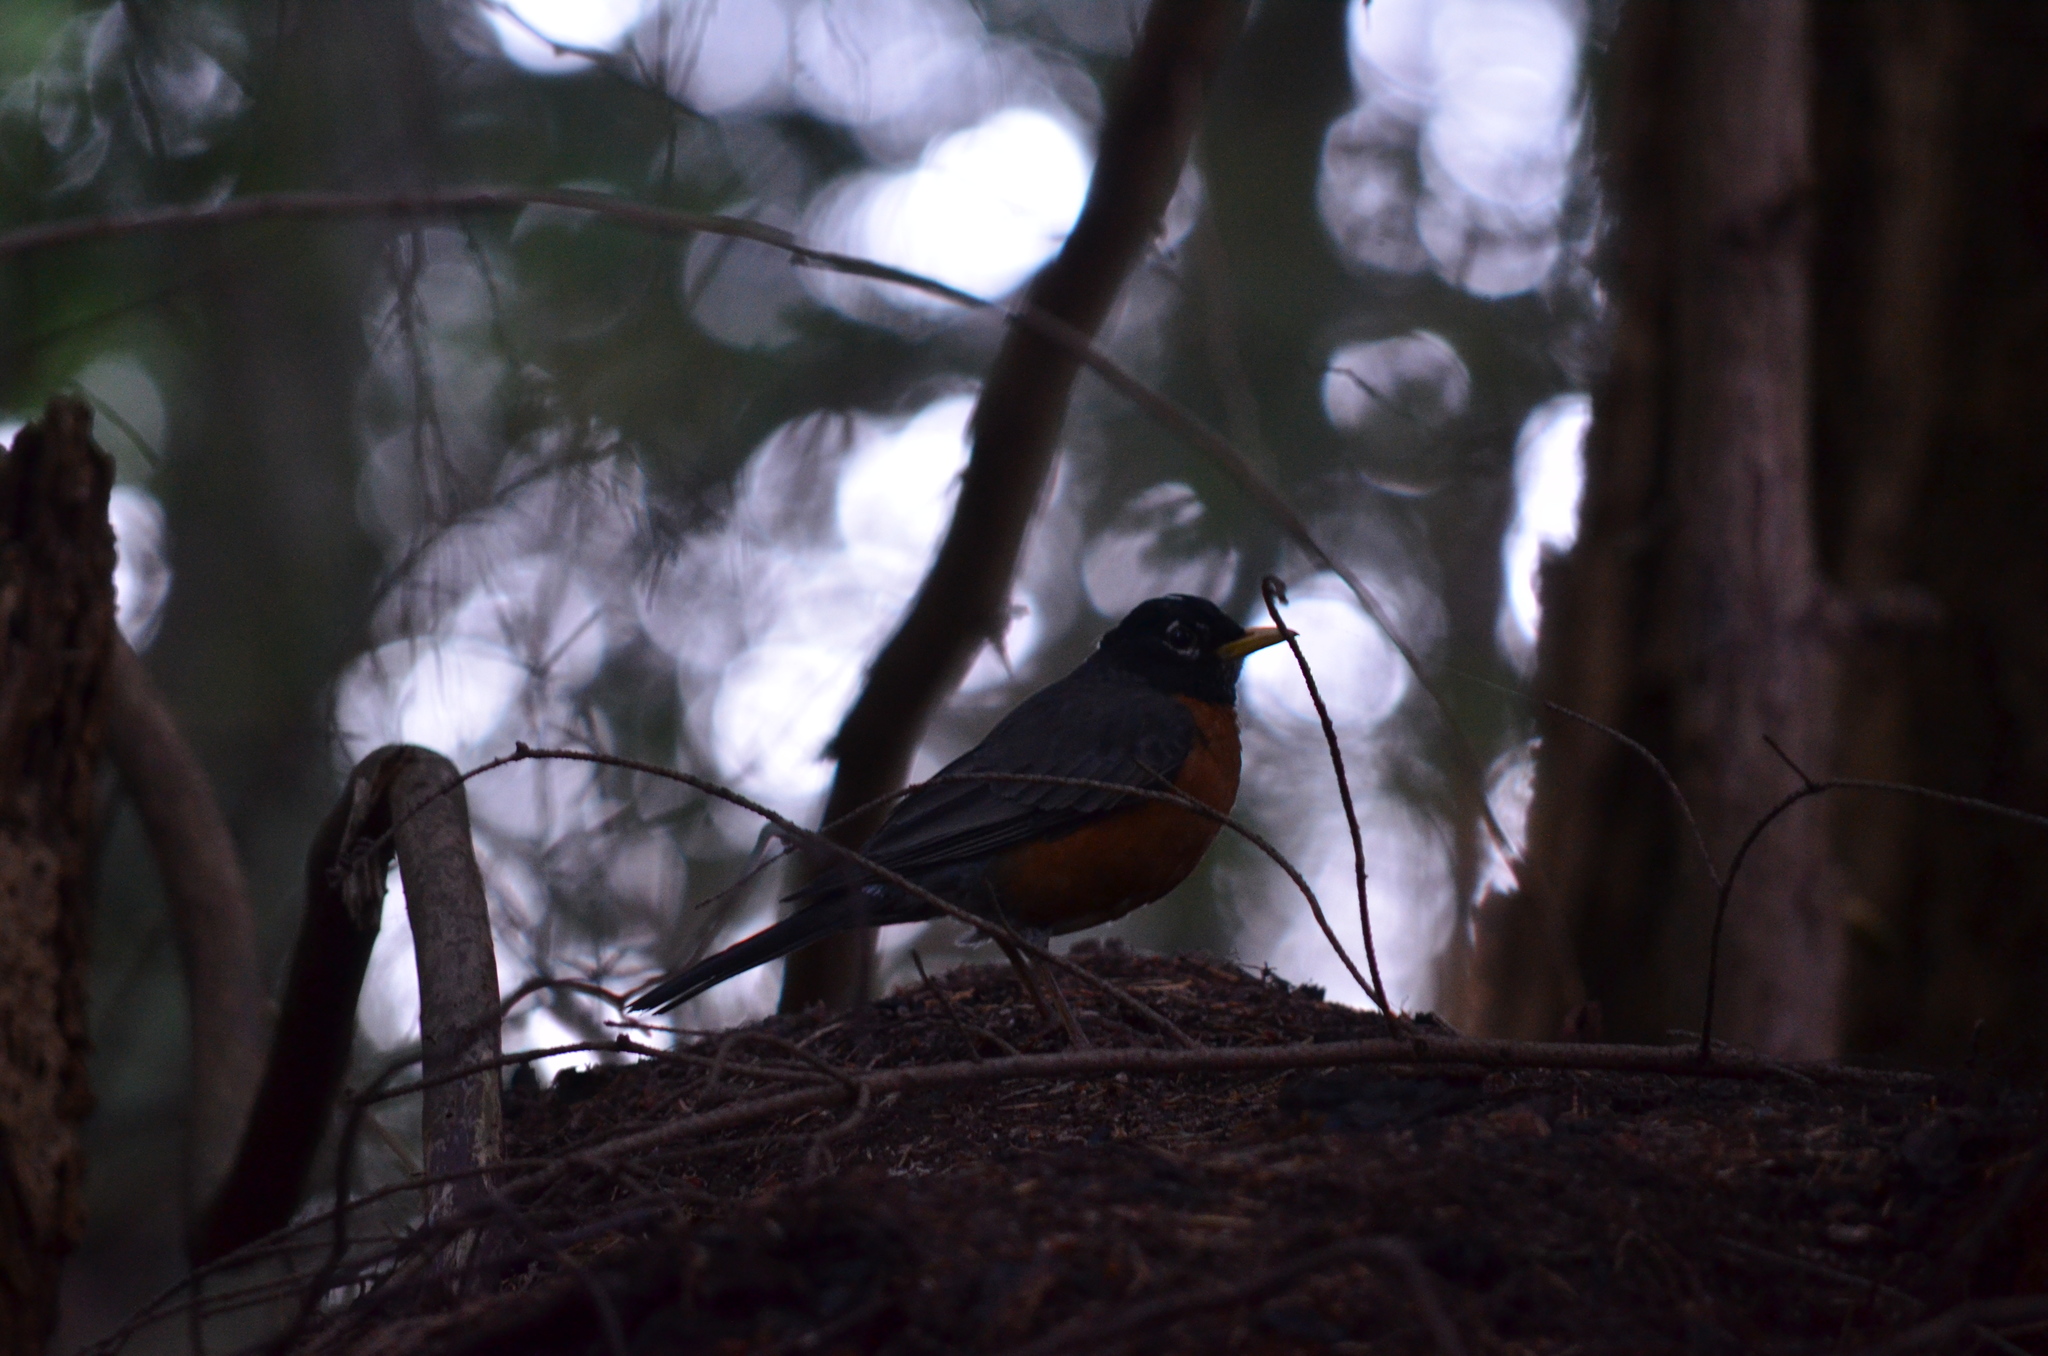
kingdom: Animalia
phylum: Chordata
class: Aves
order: Passeriformes
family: Turdidae
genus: Turdus
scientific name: Turdus migratorius
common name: American robin
